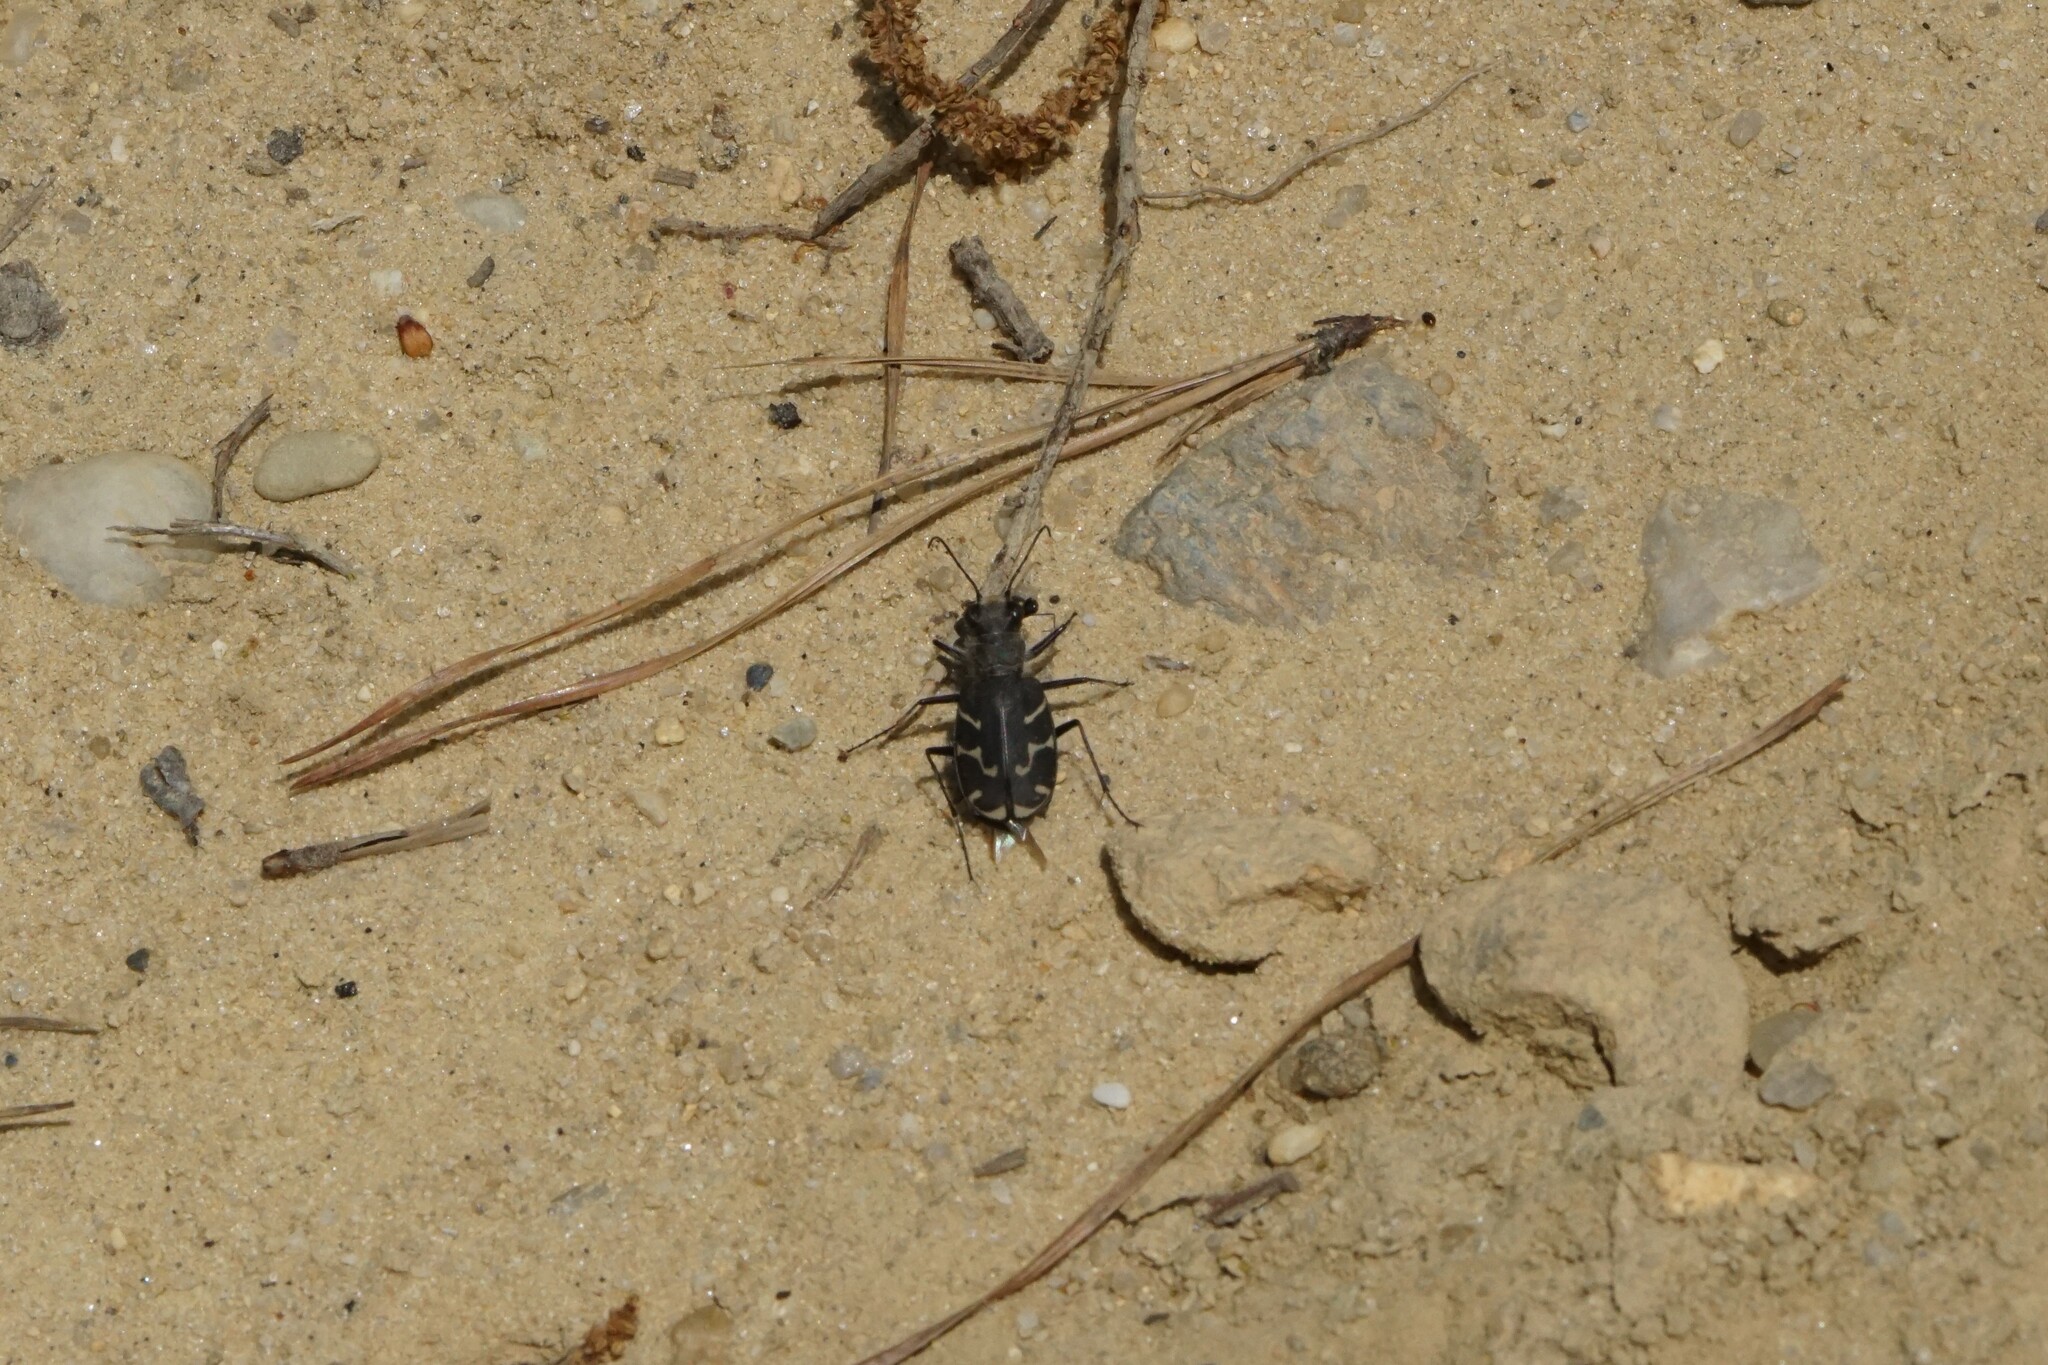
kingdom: Animalia
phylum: Arthropoda
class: Insecta
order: Coleoptera
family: Carabidae
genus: Cicindela
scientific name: Cicindela tranquebarica
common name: Oblique-lined tiger beetle
